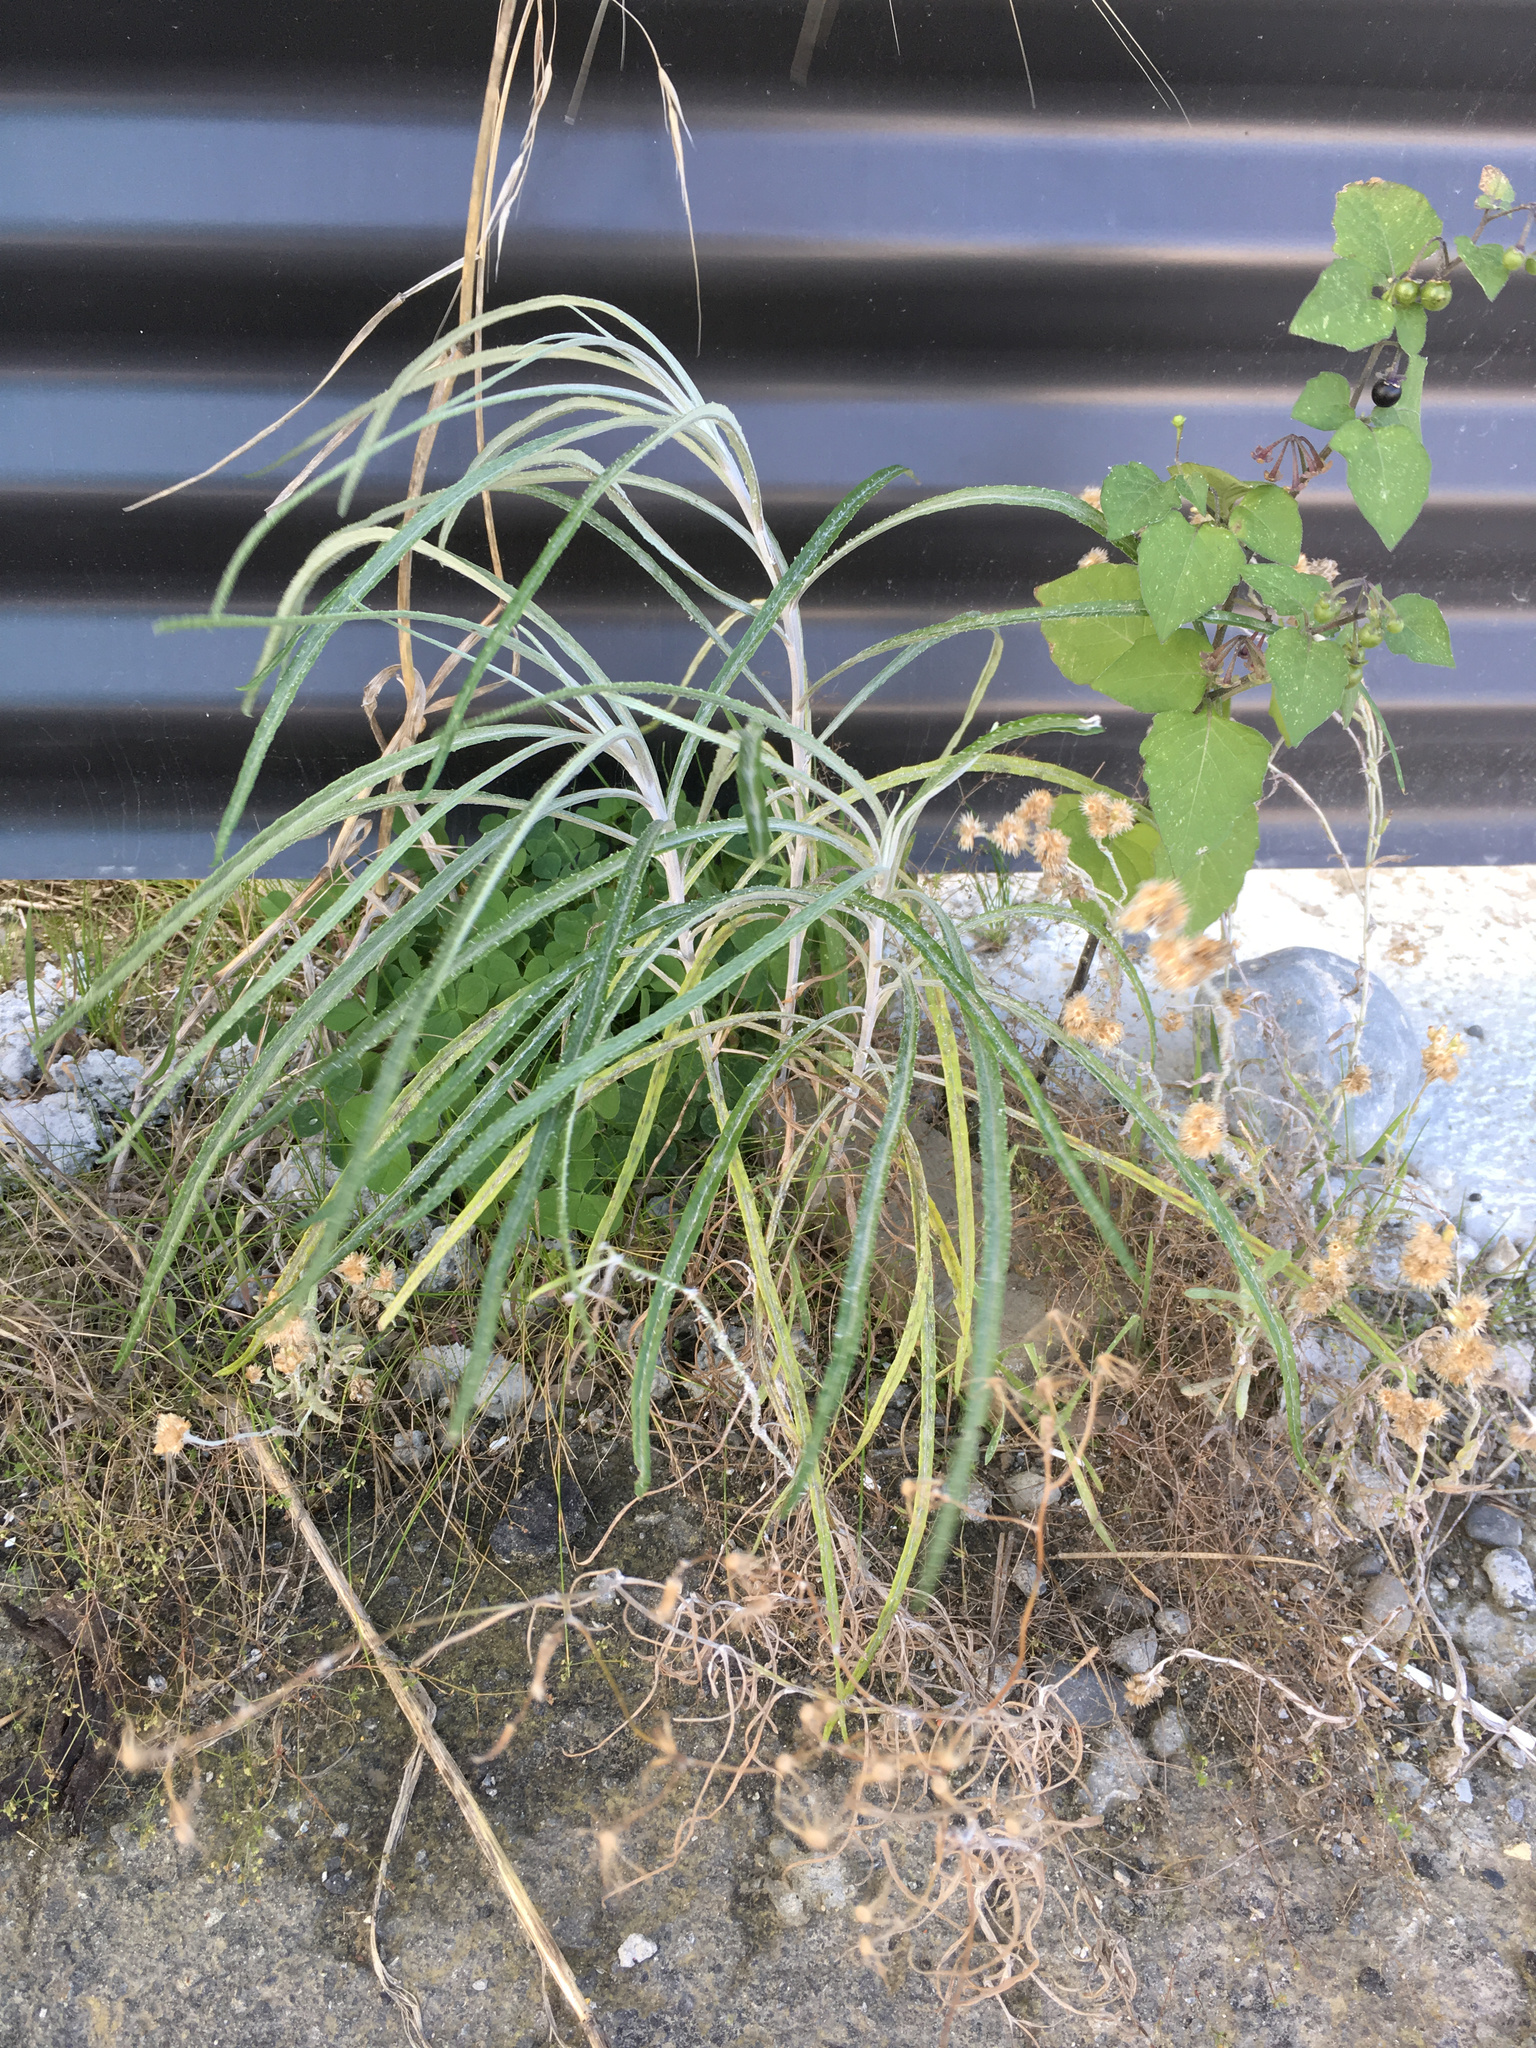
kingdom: Plantae
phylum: Tracheophyta
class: Magnoliopsida
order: Asterales
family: Asteraceae
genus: Senecio
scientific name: Senecio quadridentatus
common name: Cotton fireweed
